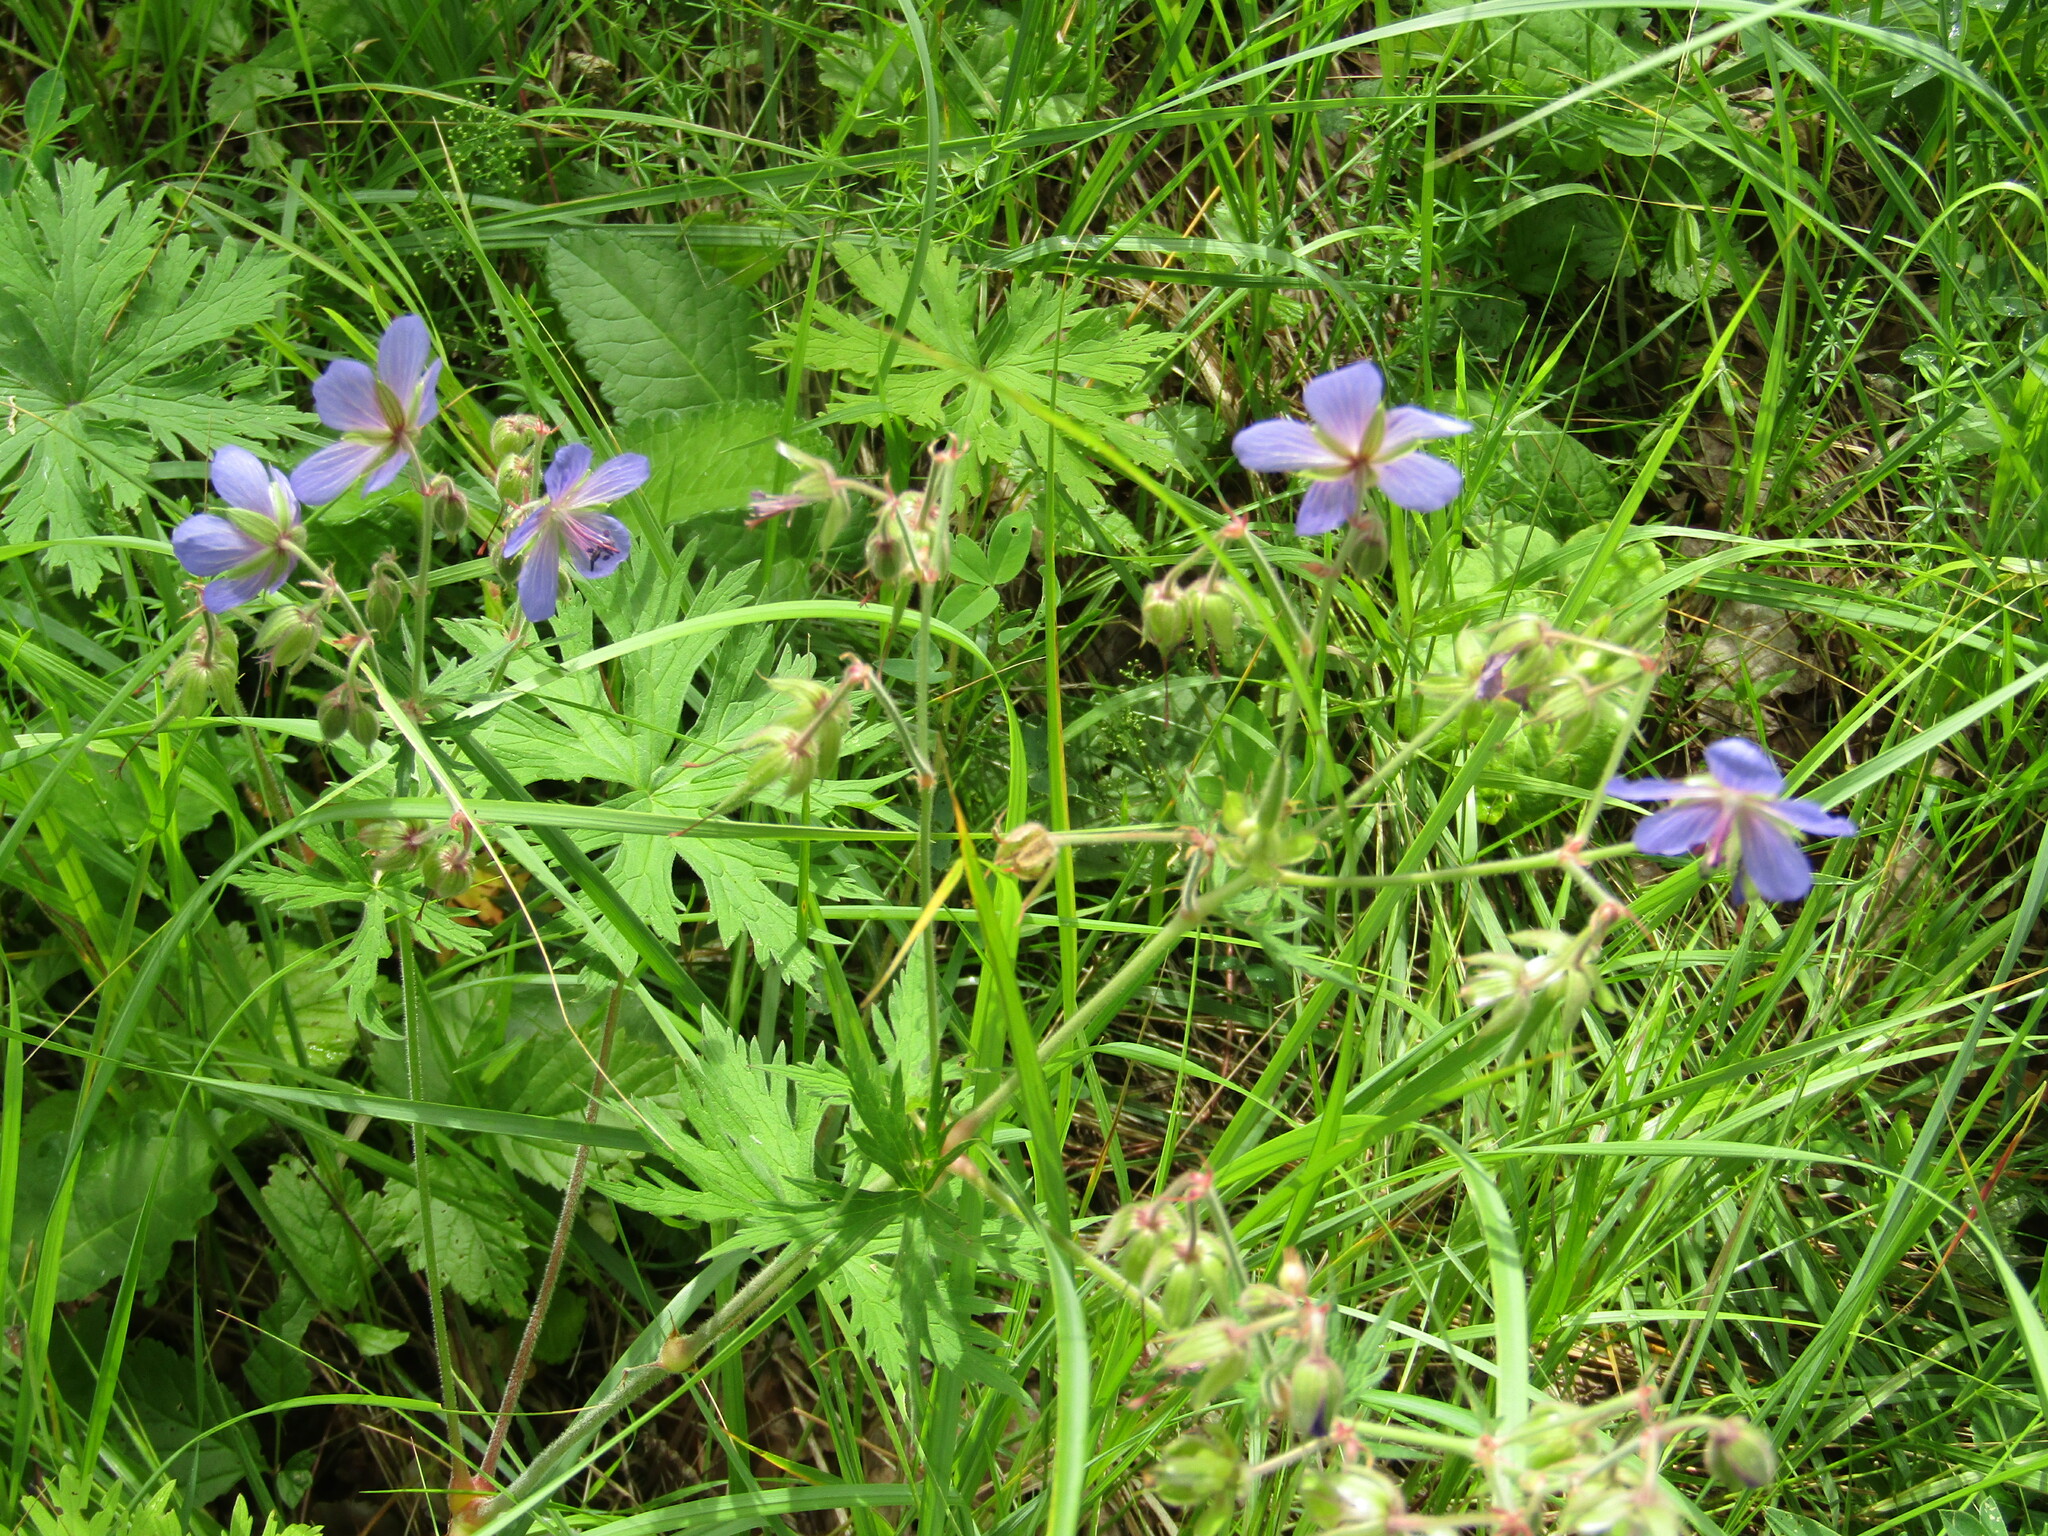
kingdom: Plantae
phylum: Tracheophyta
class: Magnoliopsida
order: Geraniales
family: Geraniaceae
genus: Geranium
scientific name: Geranium pratense
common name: Meadow crane's-bill
